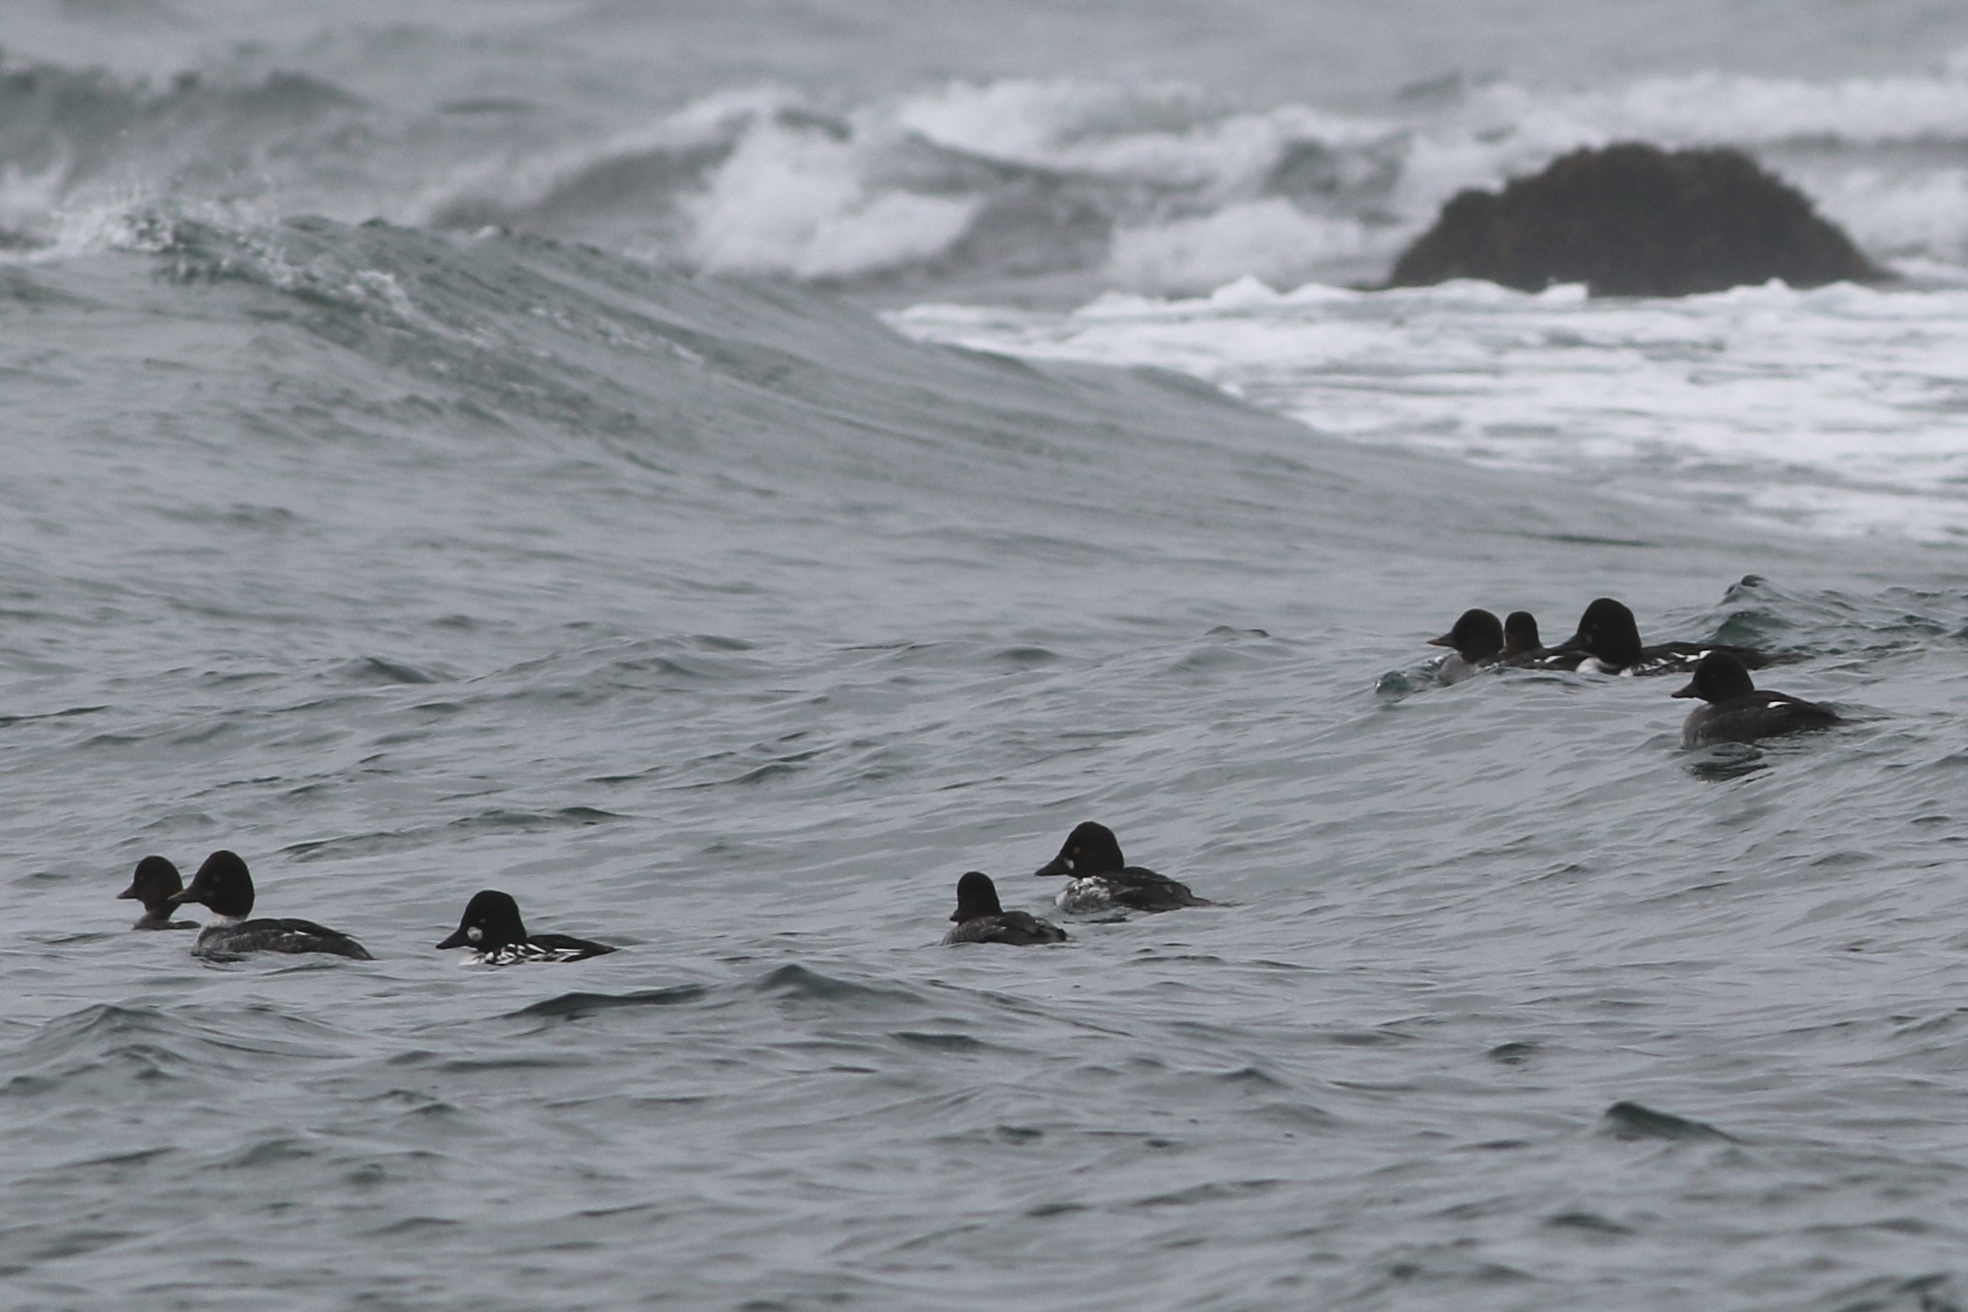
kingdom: Animalia
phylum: Chordata
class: Aves
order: Anseriformes
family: Anatidae
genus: Bucephala
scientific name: Bucephala clangula
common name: Common goldeneye
